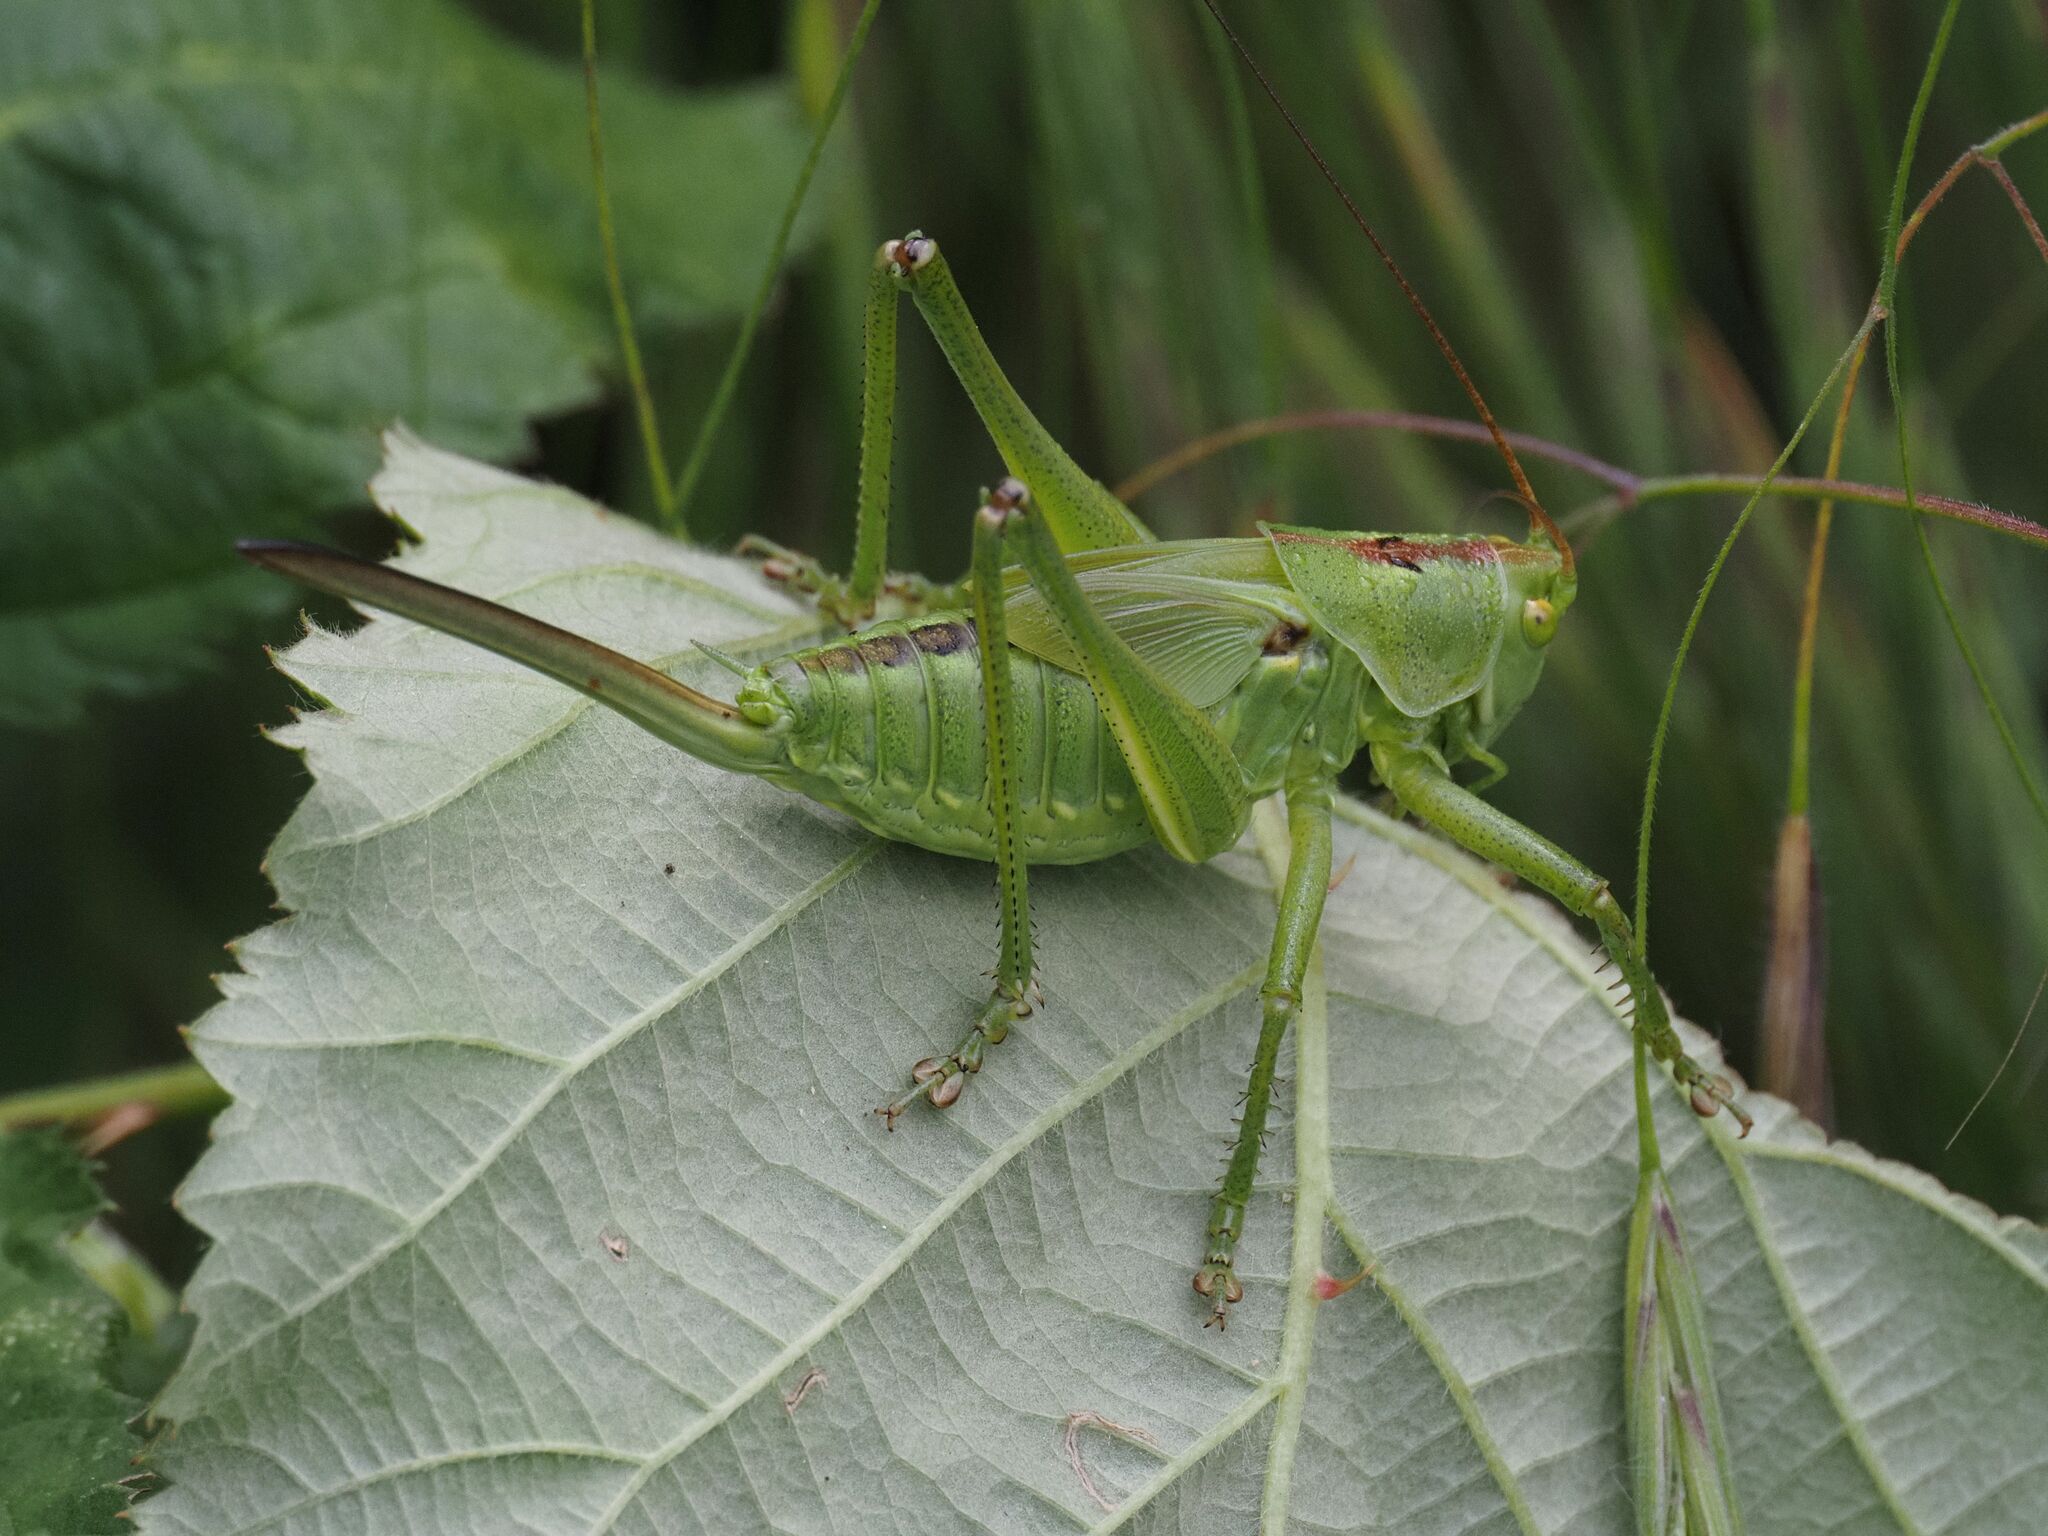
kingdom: Animalia
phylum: Arthropoda
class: Insecta
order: Orthoptera
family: Tettigoniidae
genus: Tettigonia
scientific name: Tettigonia viridissima
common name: Great green bush-cricket
